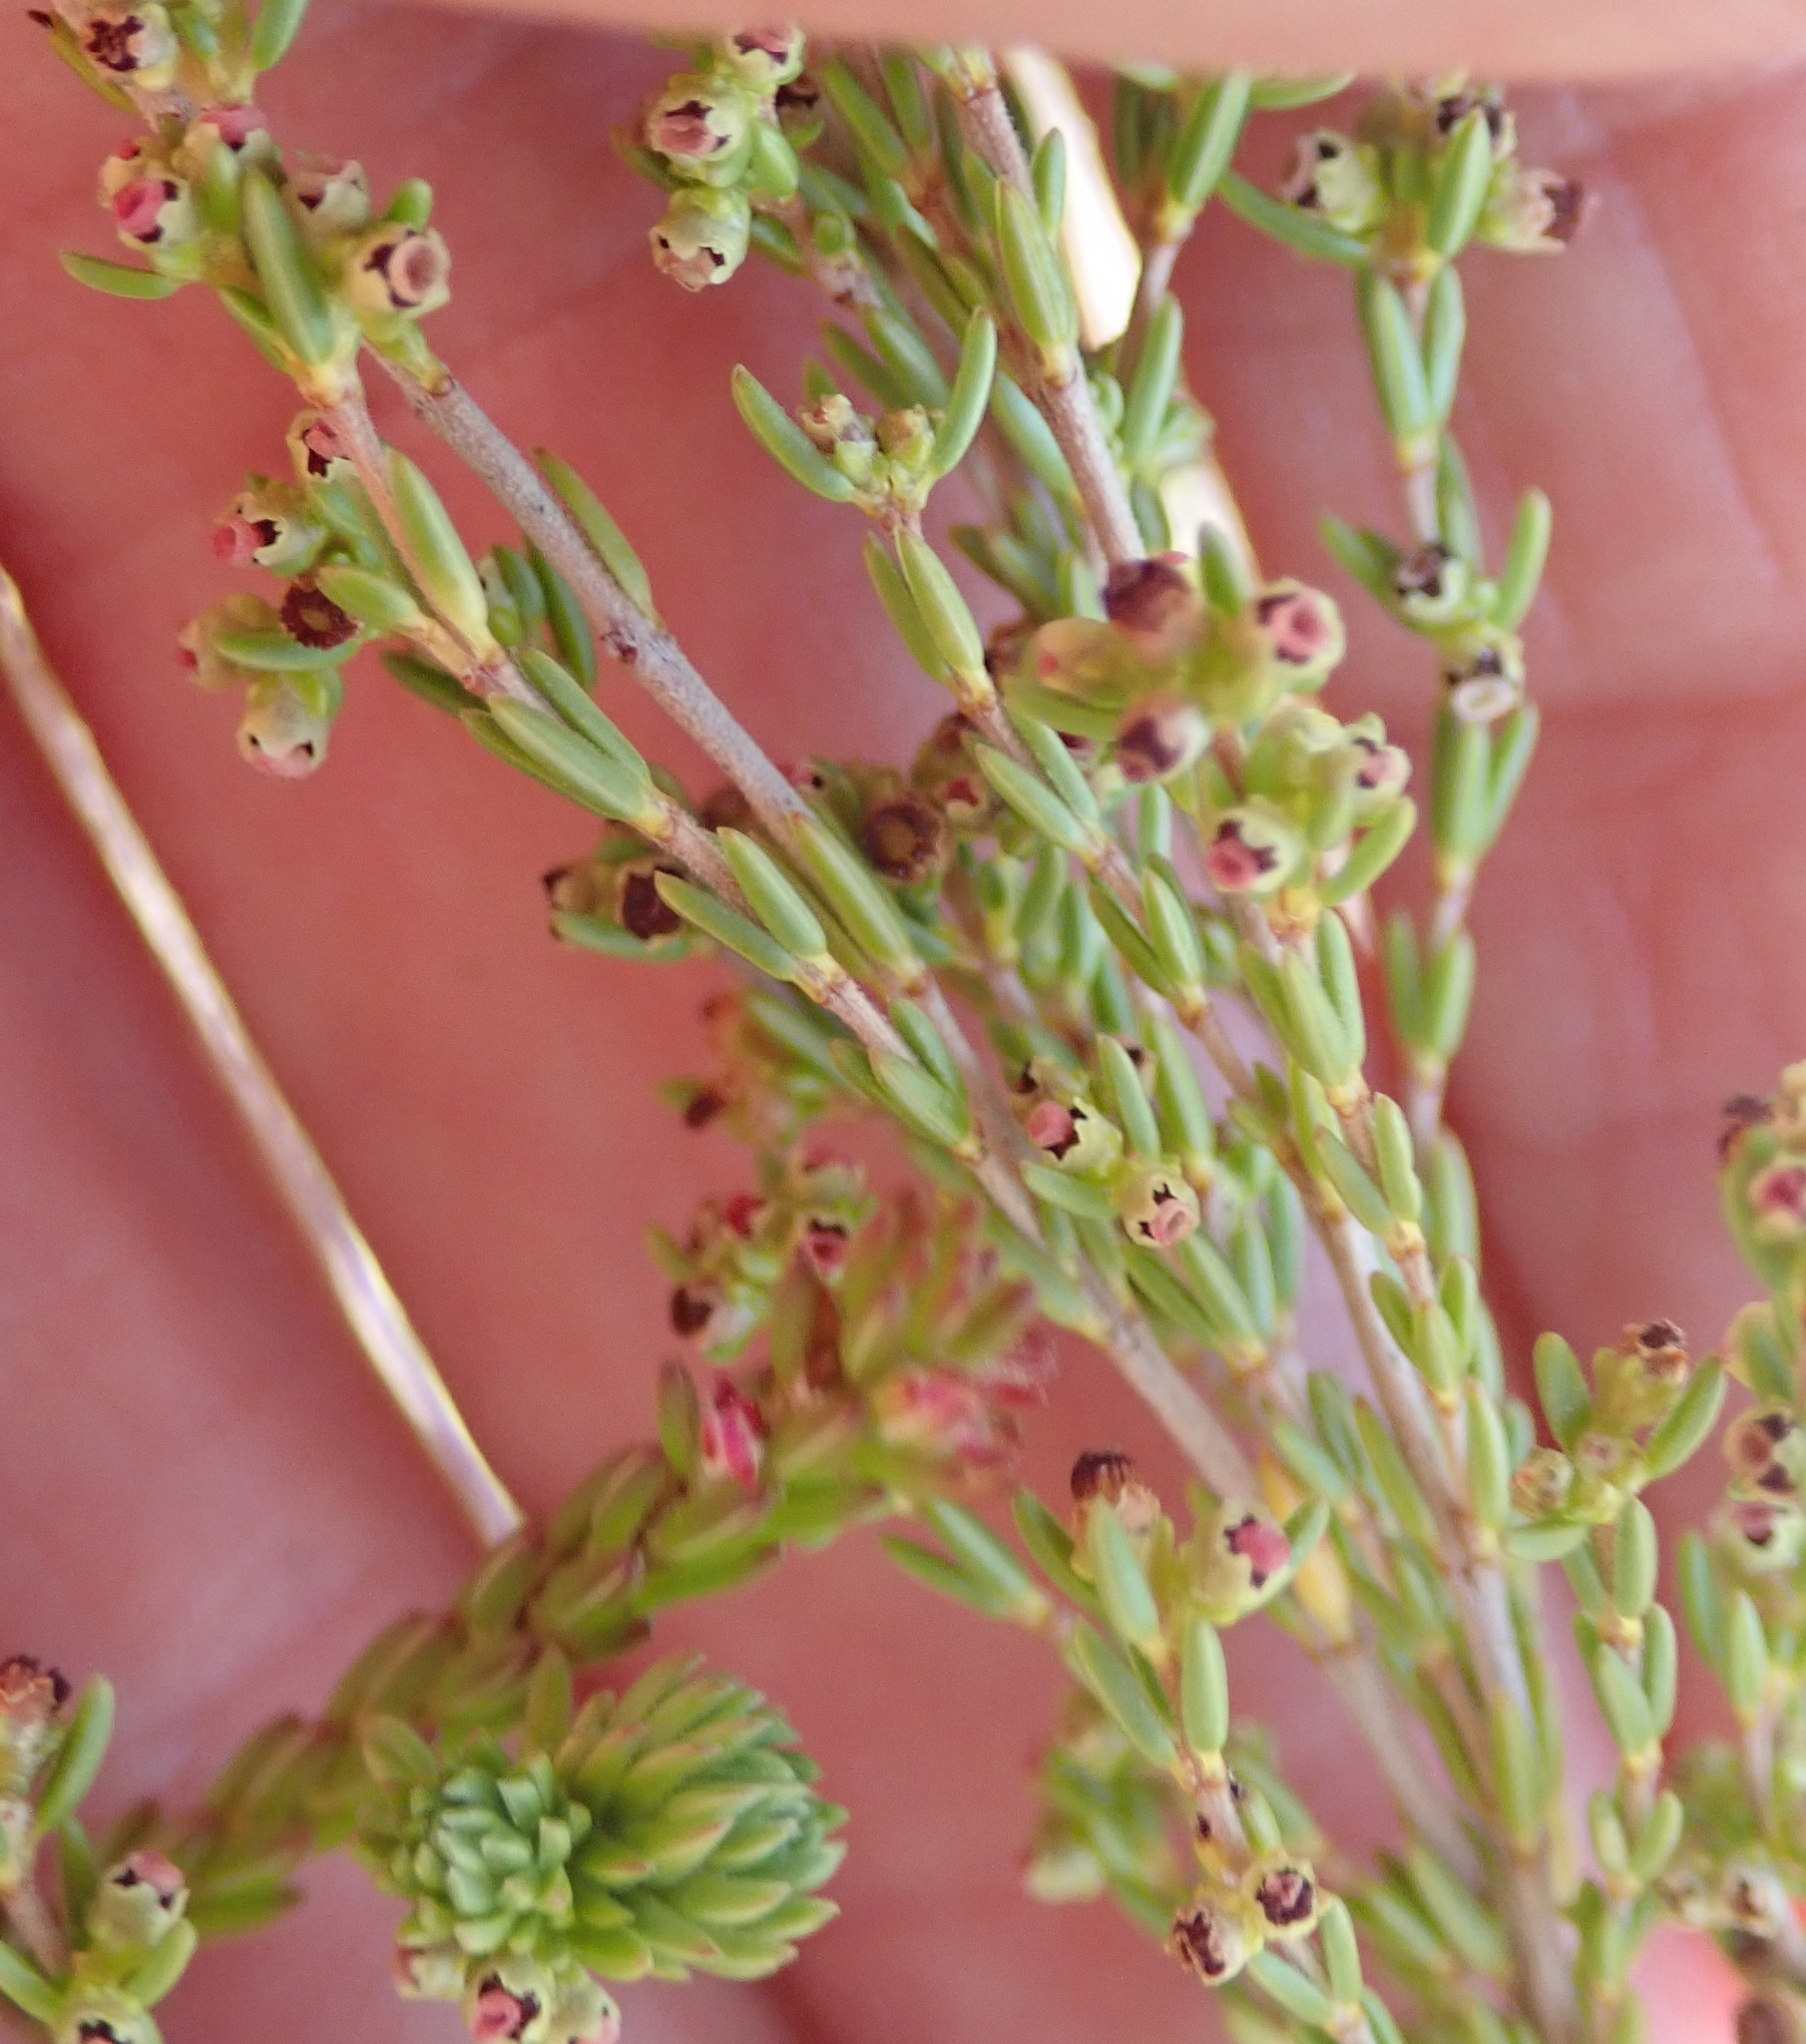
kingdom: Plantae
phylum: Tracheophyta
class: Magnoliopsida
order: Ericales
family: Ericaceae
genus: Erica
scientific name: Erica longiaristata
